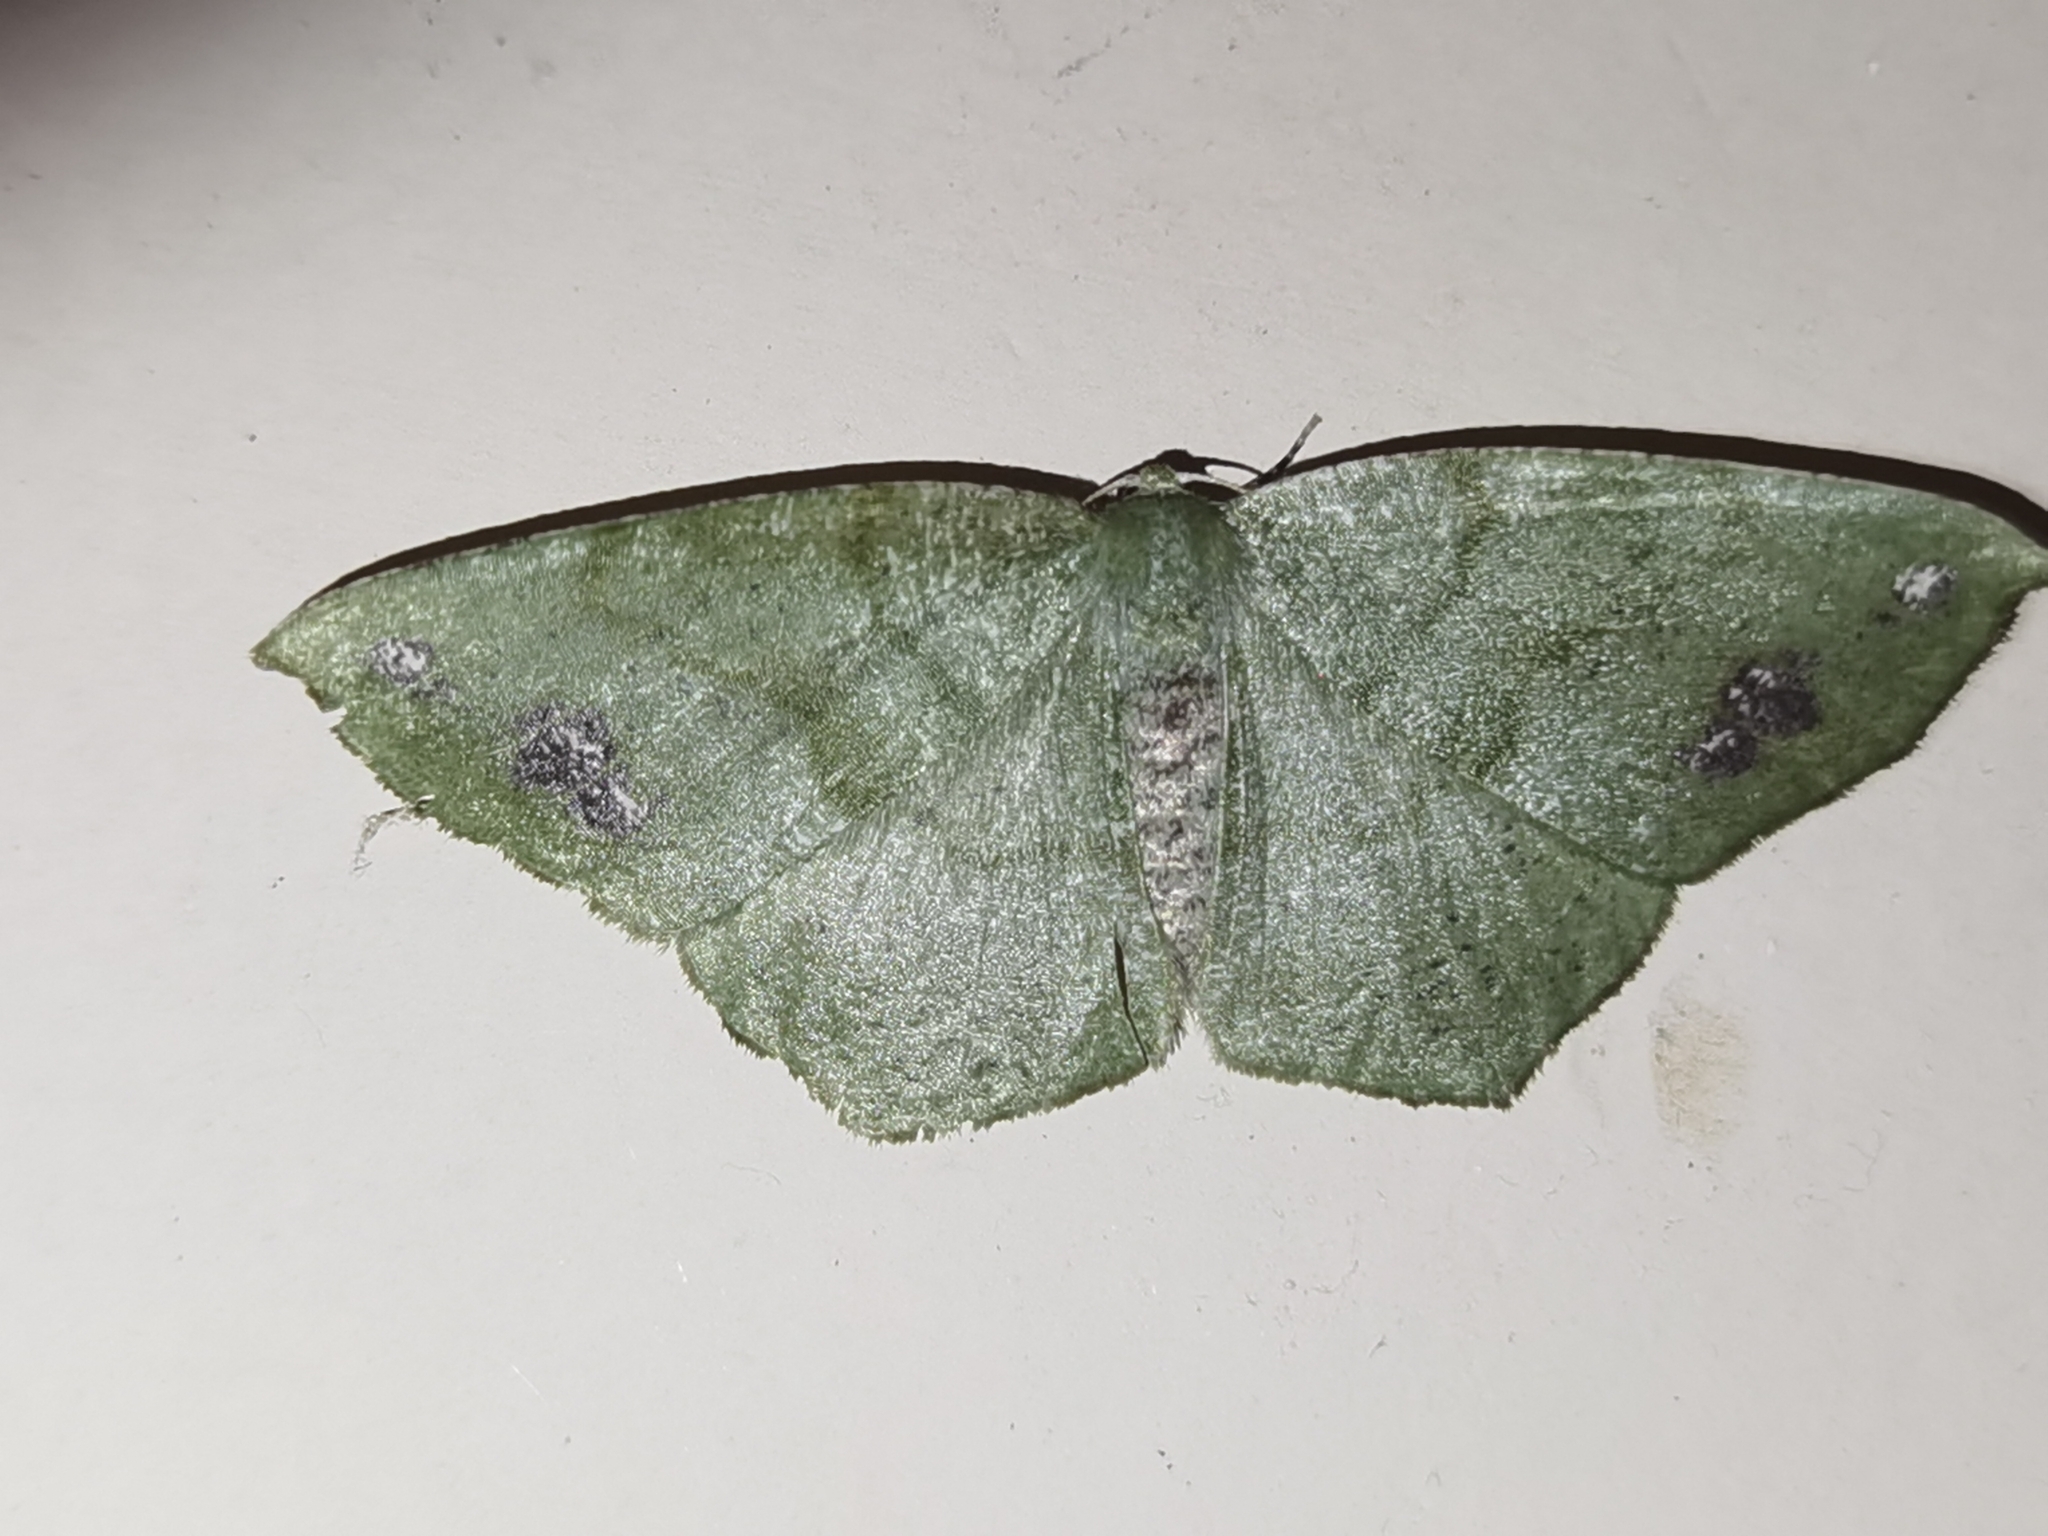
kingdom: Animalia
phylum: Arthropoda
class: Insecta
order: Lepidoptera
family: Geometridae
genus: Himeromima
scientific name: Himeromima aulis
